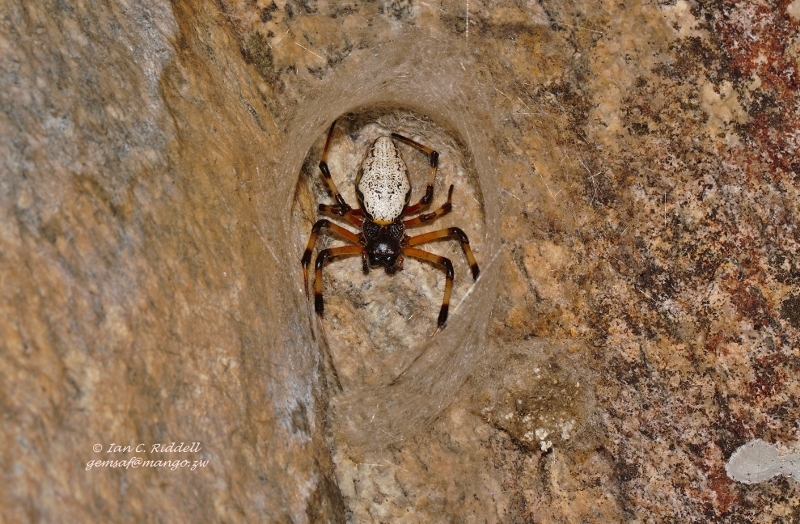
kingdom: Animalia
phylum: Arthropoda
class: Arachnida
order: Araneae
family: Araneidae
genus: Nephilingis
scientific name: Nephilingis cruentata
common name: African hermit spider
